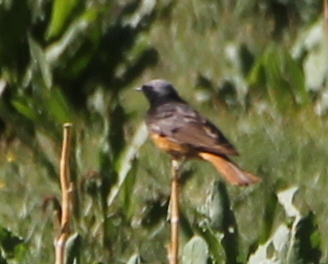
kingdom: Animalia
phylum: Chordata
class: Aves
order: Passeriformes
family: Muscicapidae
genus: Phoenicurus
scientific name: Phoenicurus ochruros
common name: Black redstart
